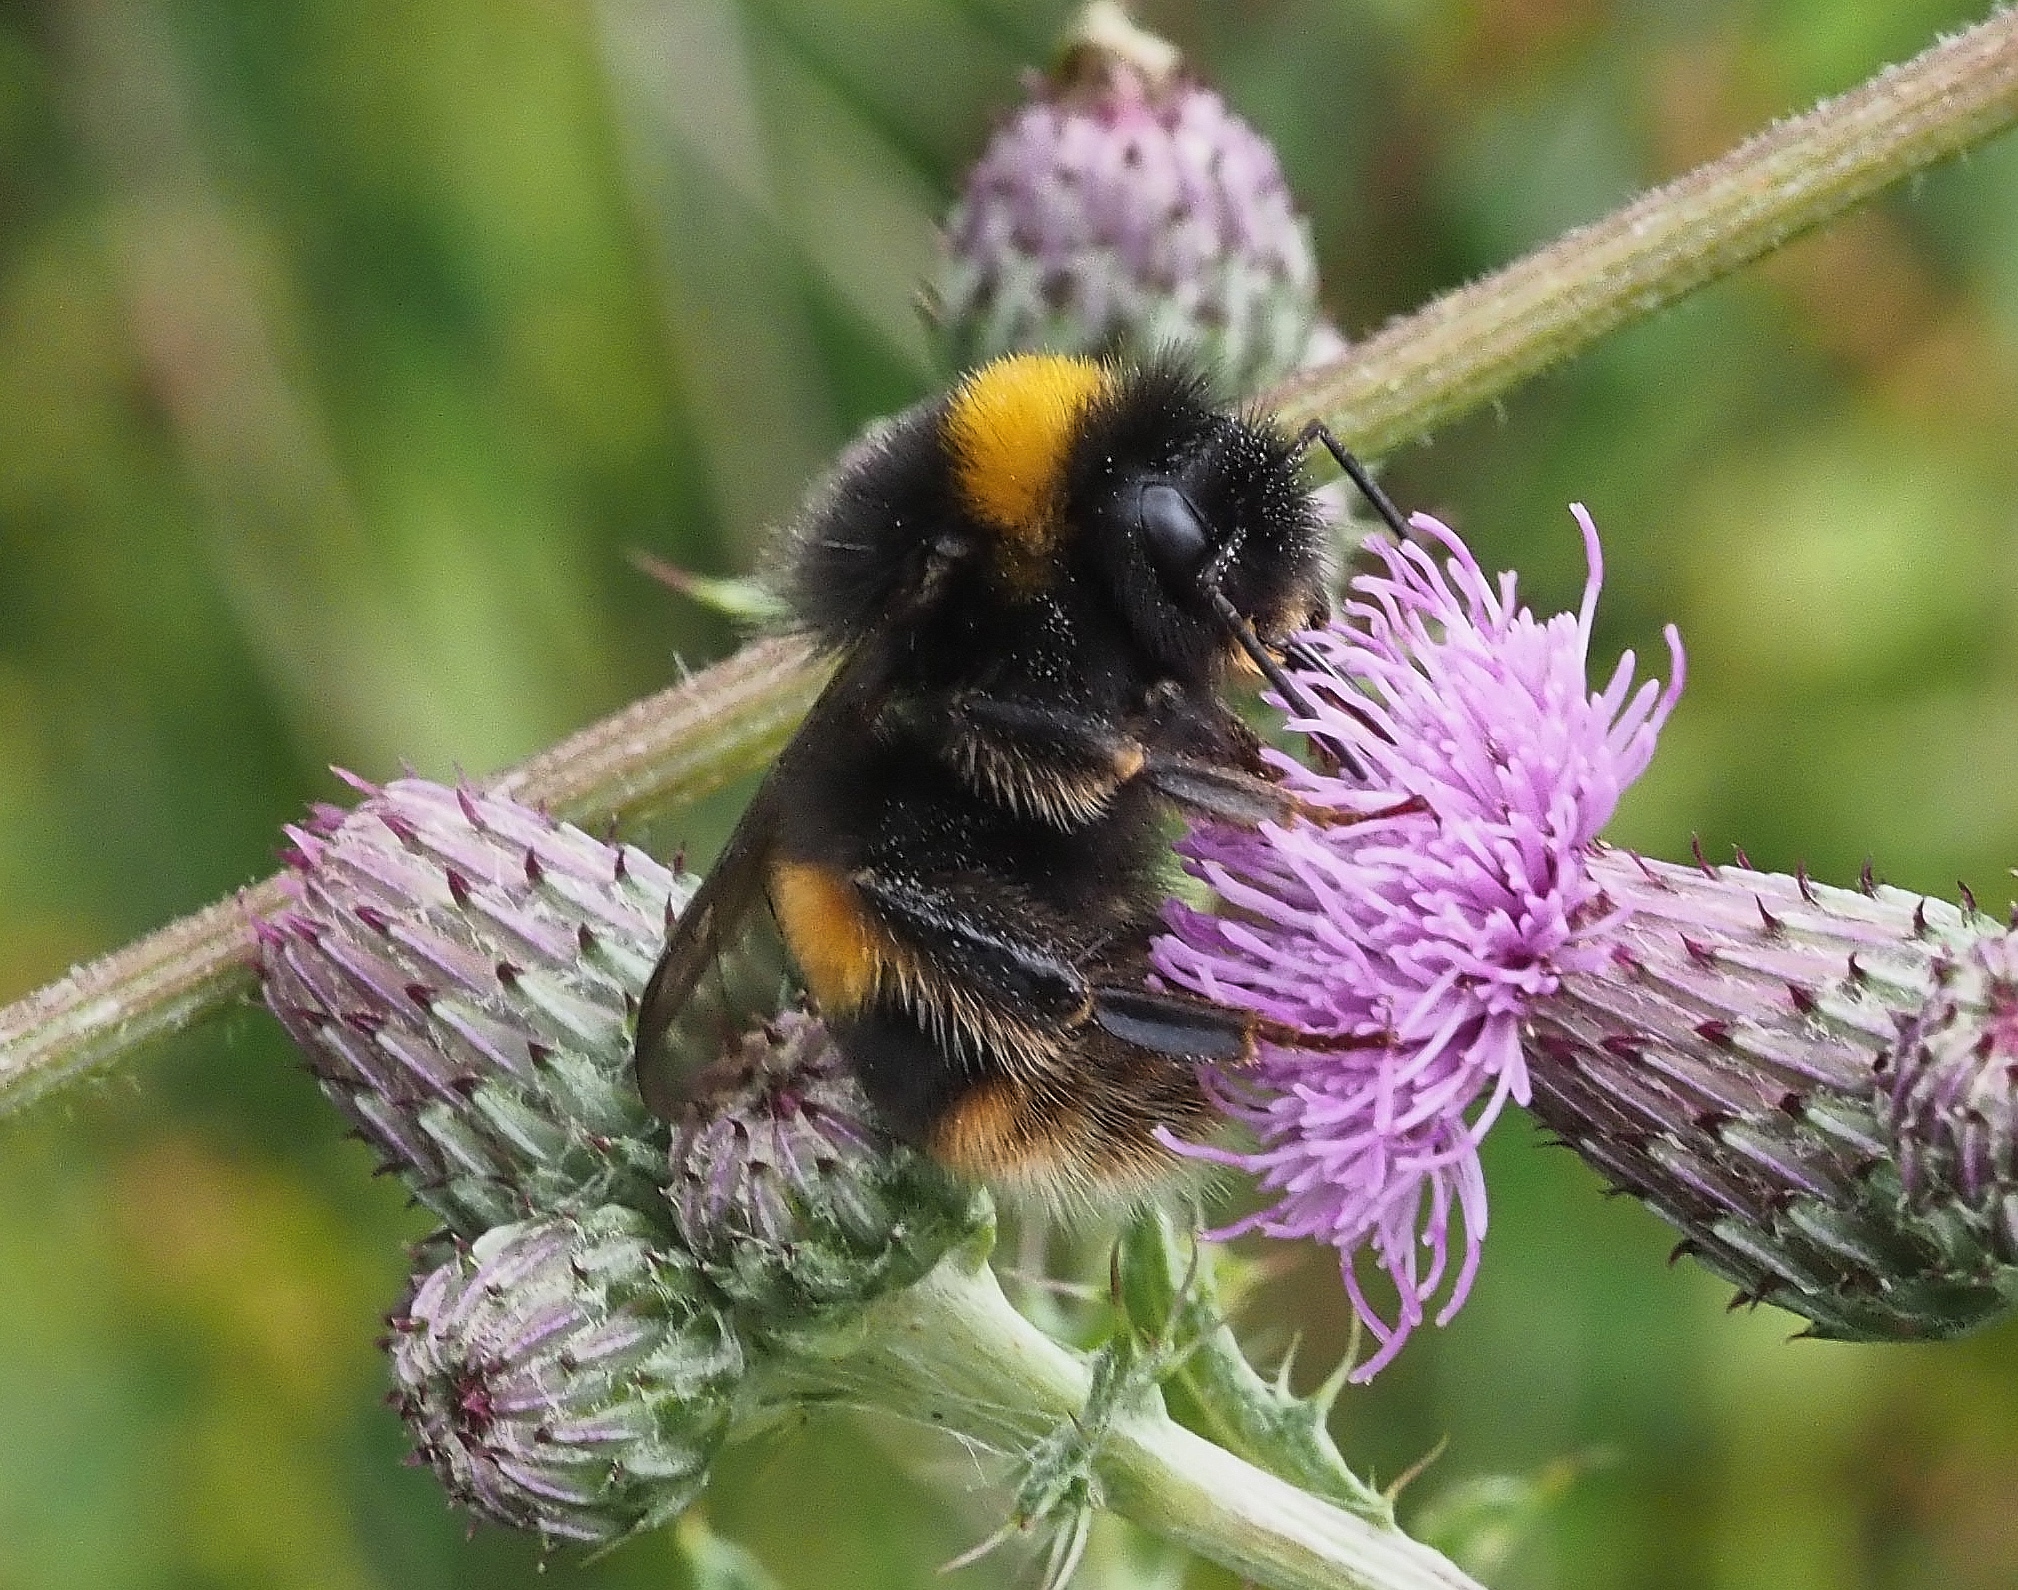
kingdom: Animalia
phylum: Arthropoda
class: Insecta
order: Hymenoptera
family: Apidae
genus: Bombus
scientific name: Bombus terrestris
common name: Buff-tailed bumblebee
